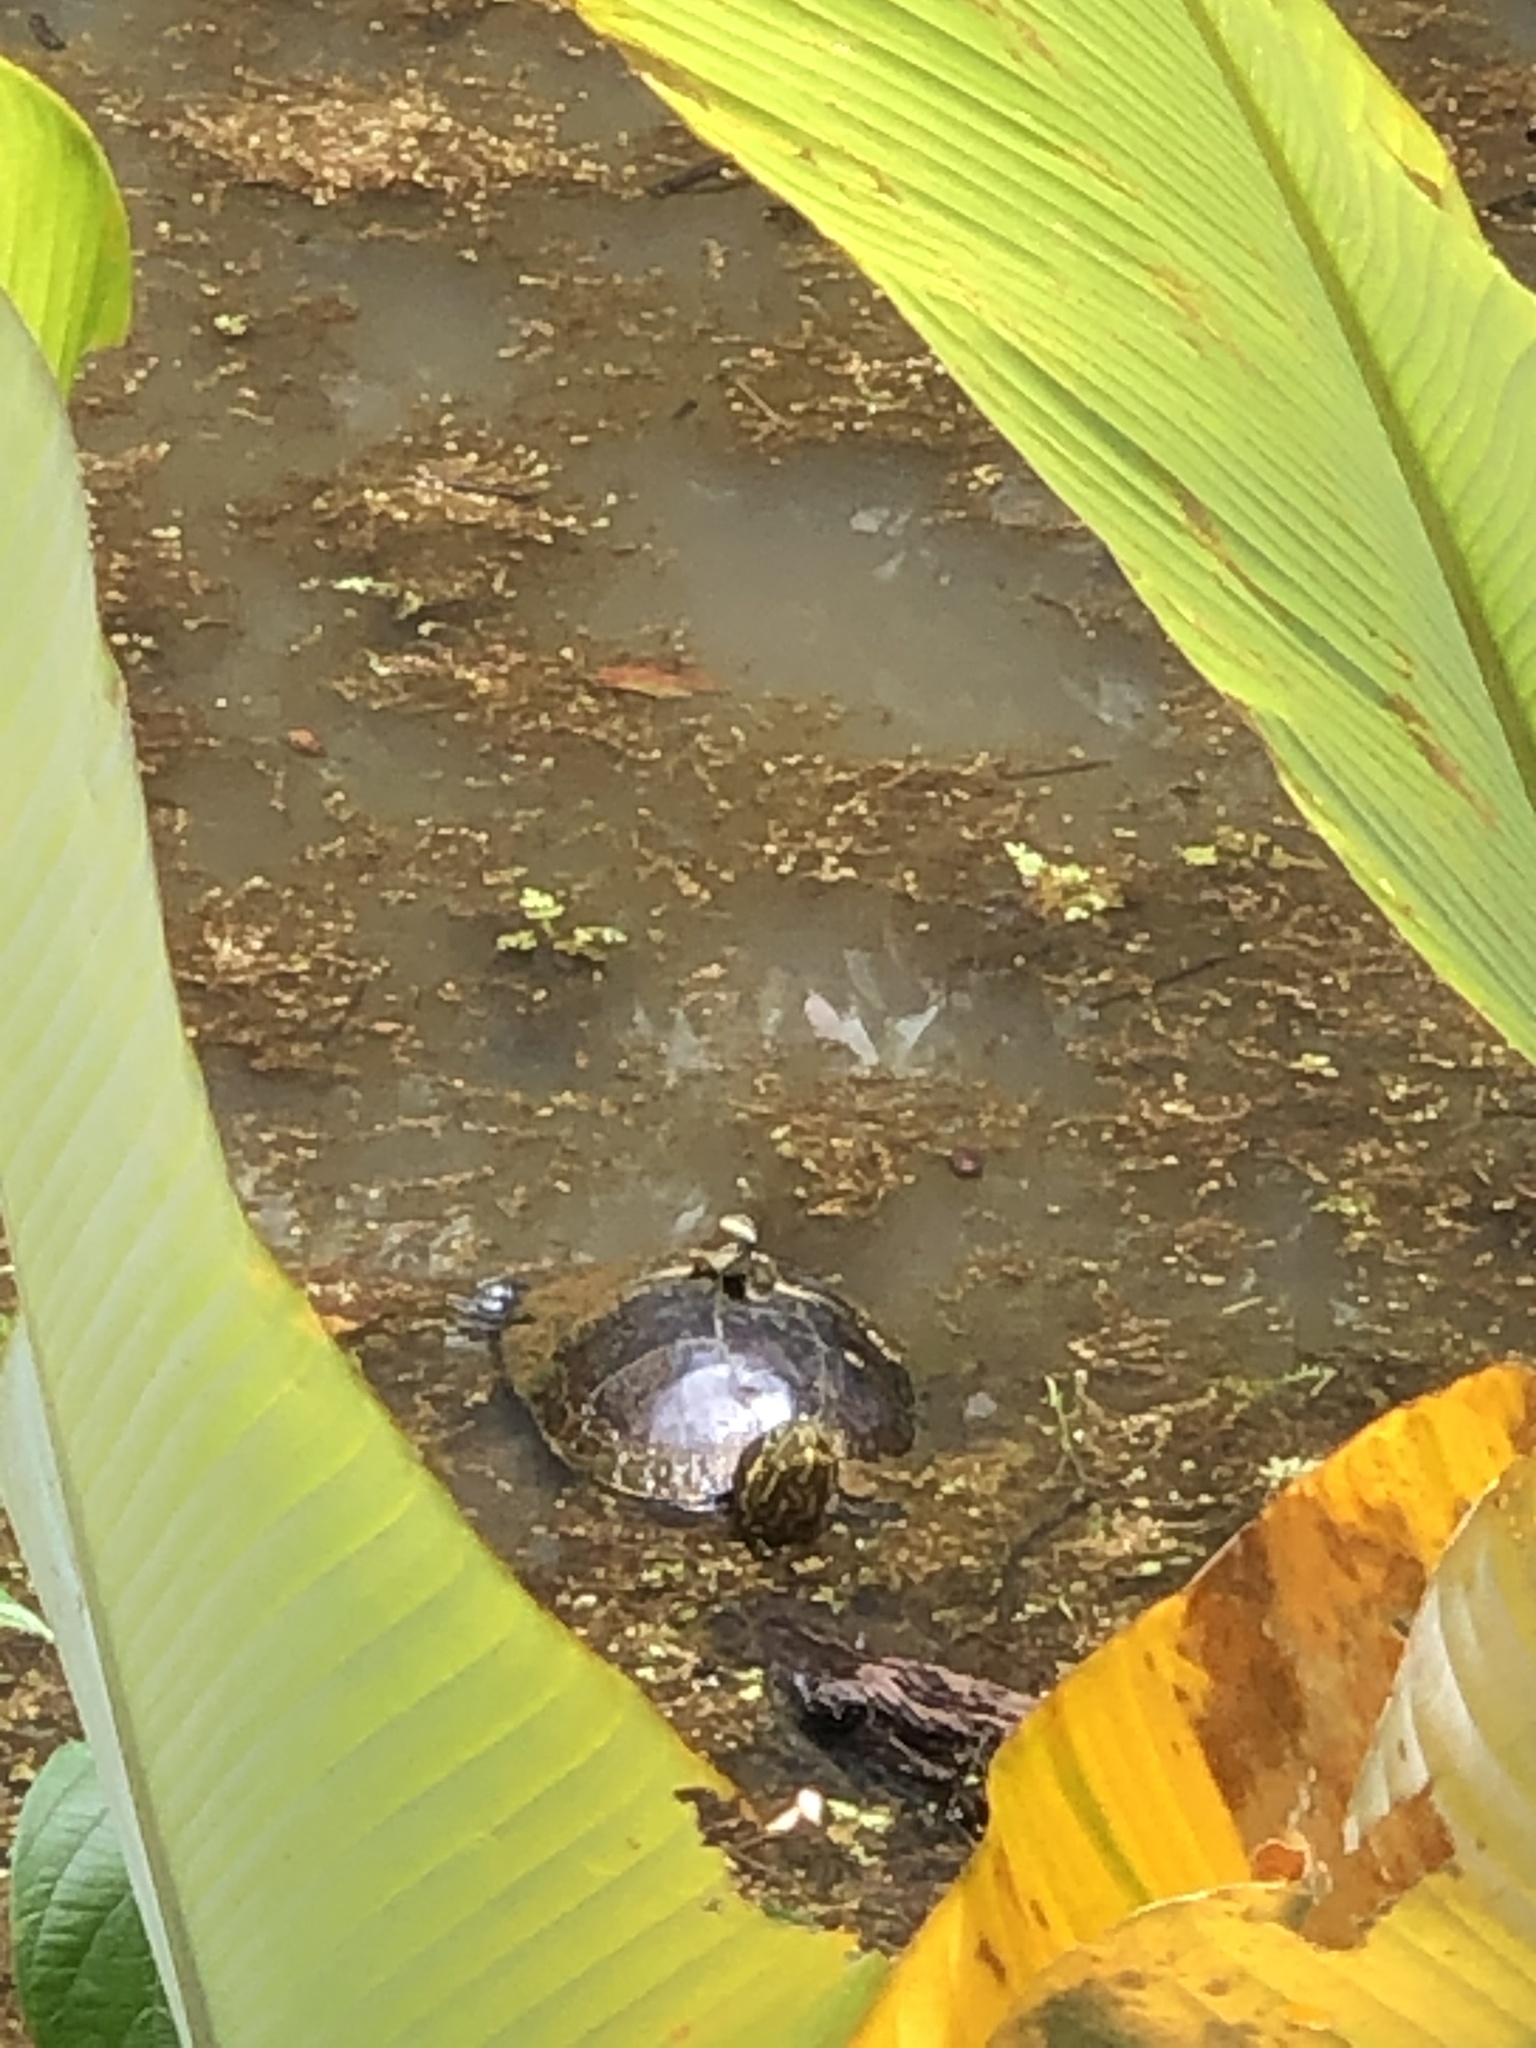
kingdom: Animalia
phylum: Chordata
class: Testudines
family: Emydidae
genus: Trachemys
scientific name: Trachemys venusta
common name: Mesoamerican slider
